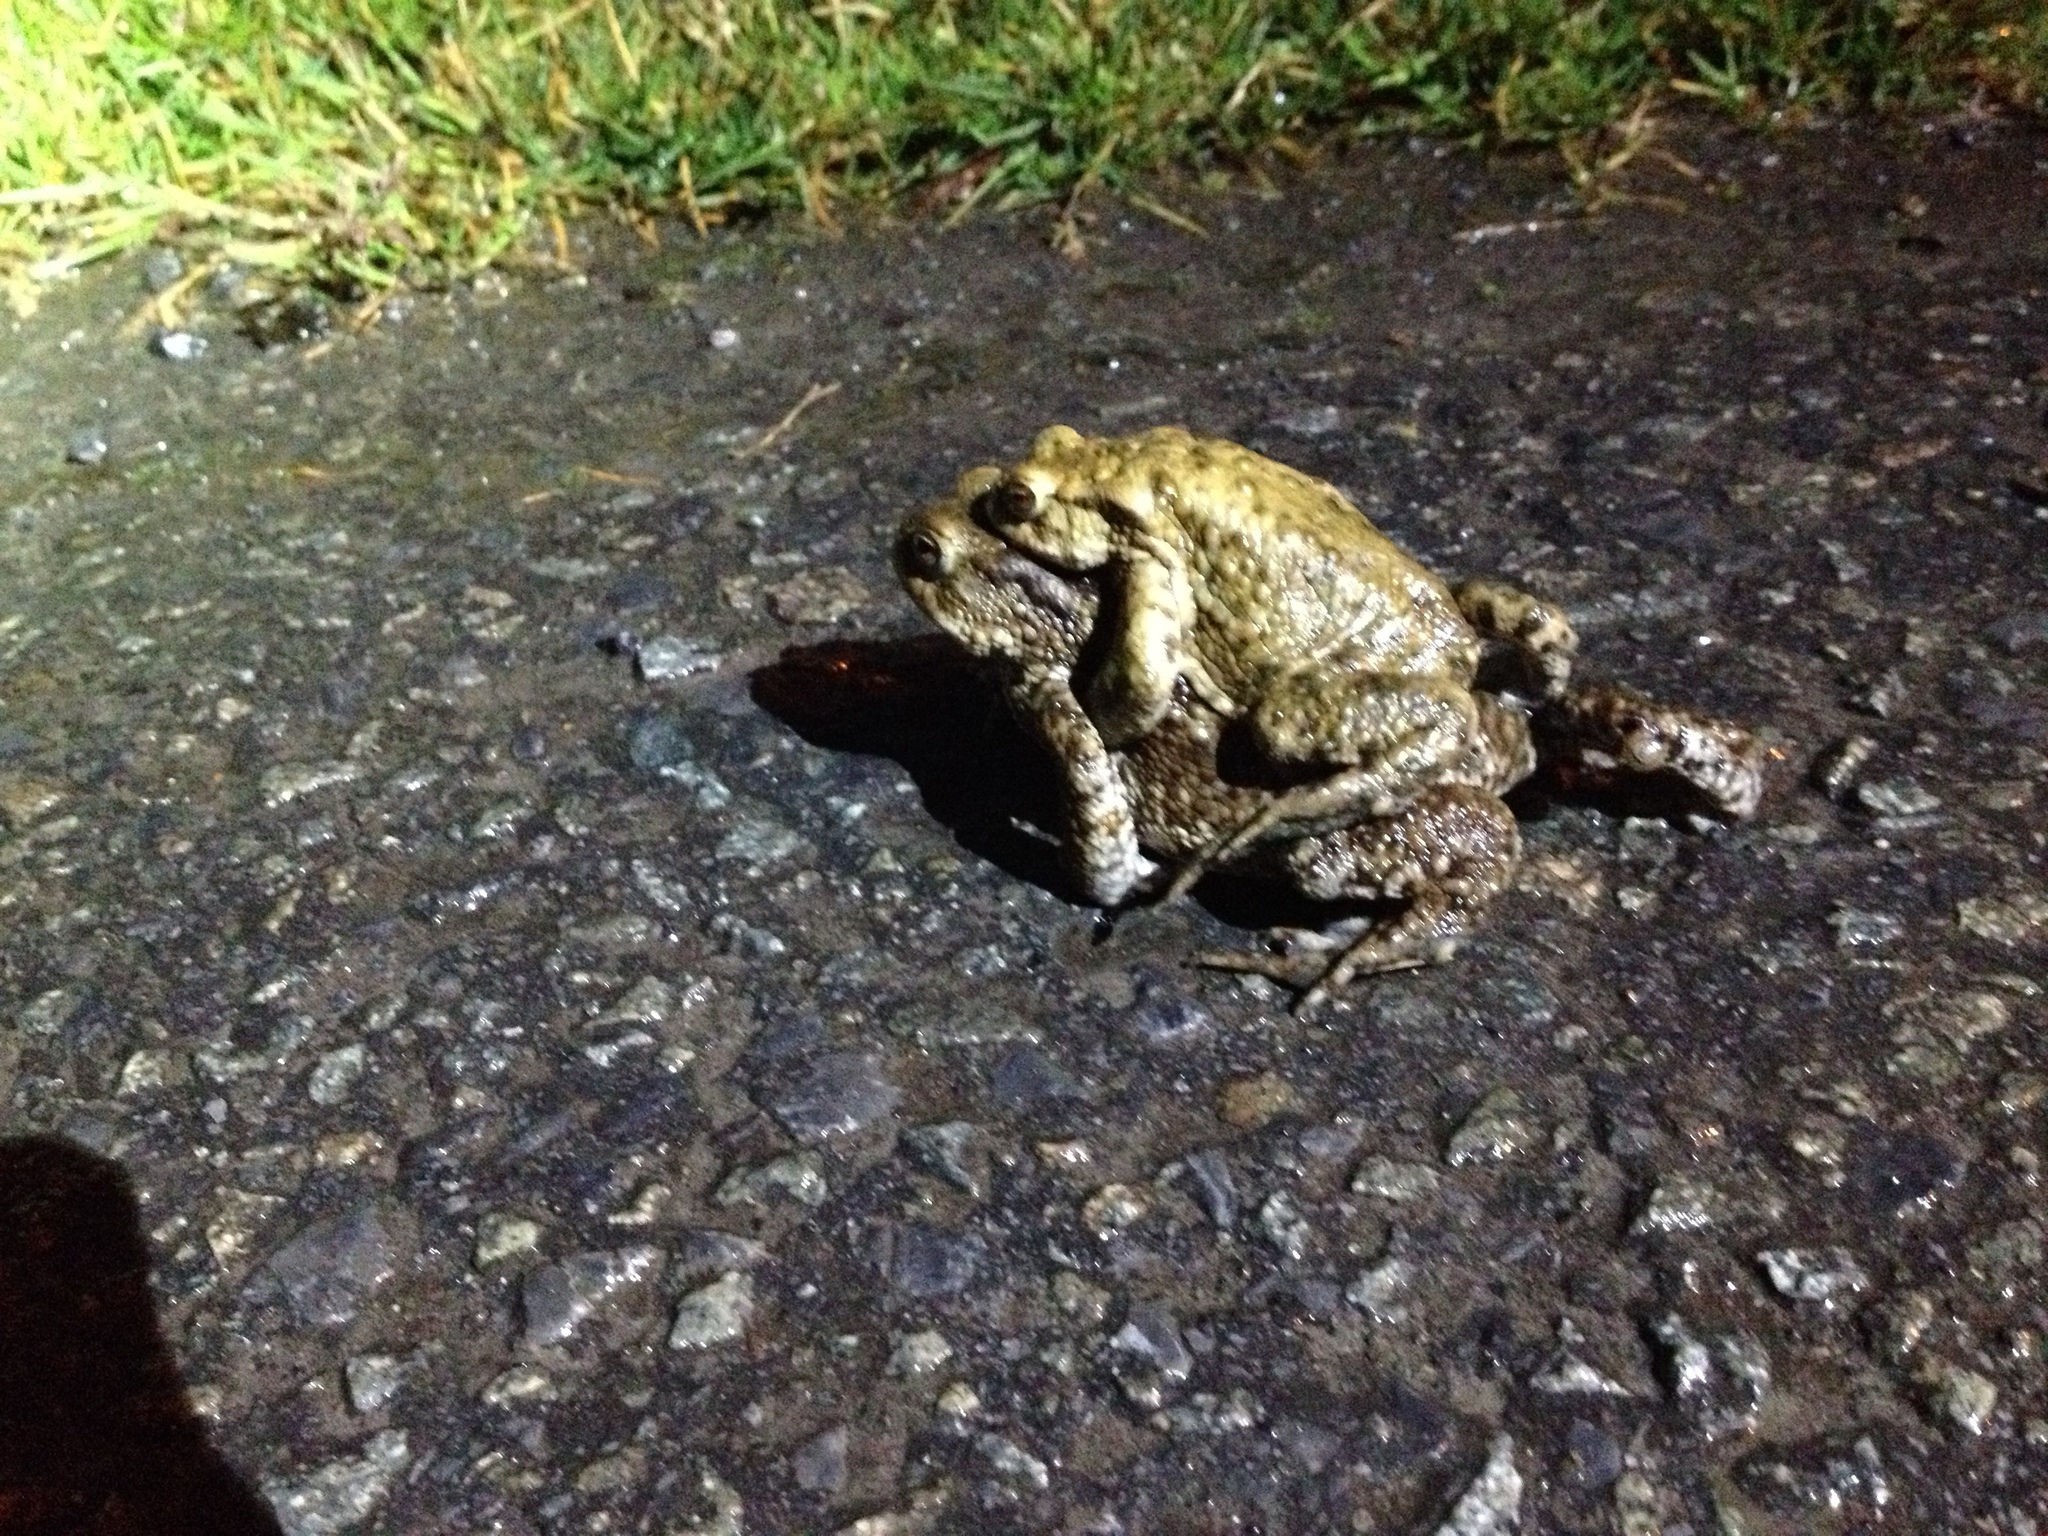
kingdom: Animalia
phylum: Chordata
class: Amphibia
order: Anura
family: Bufonidae
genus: Bufo
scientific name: Bufo bufo
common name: Common toad
